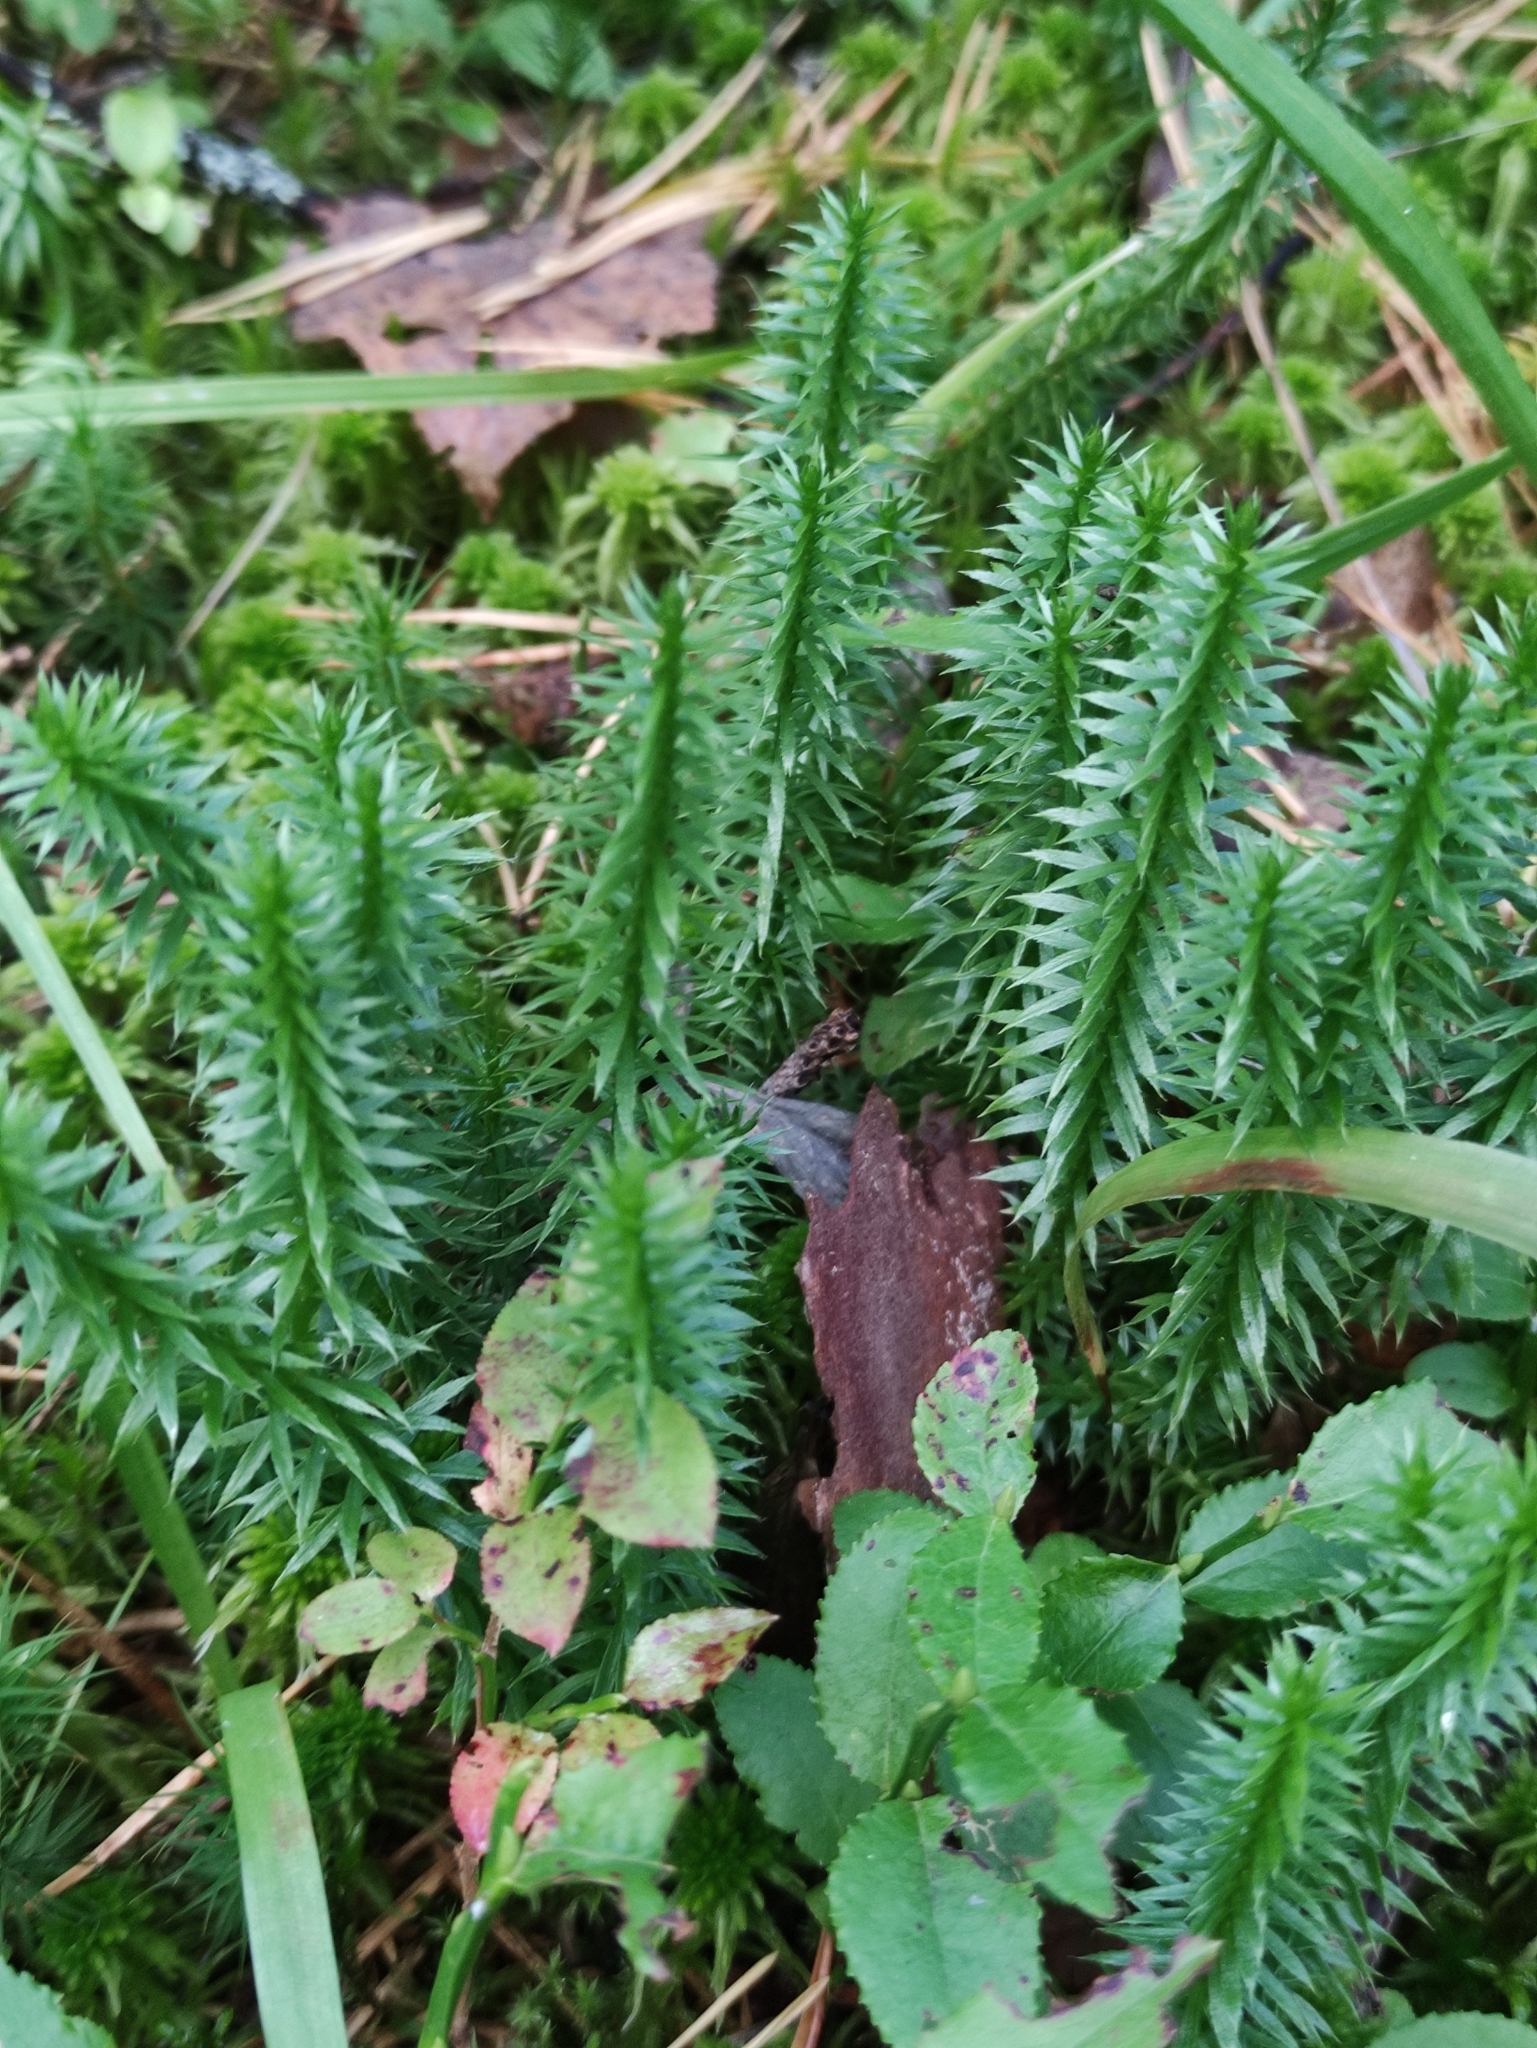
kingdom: Plantae
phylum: Tracheophyta
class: Lycopodiopsida
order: Lycopodiales
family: Lycopodiaceae
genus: Spinulum
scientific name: Spinulum annotinum
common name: Interrupted club-moss
